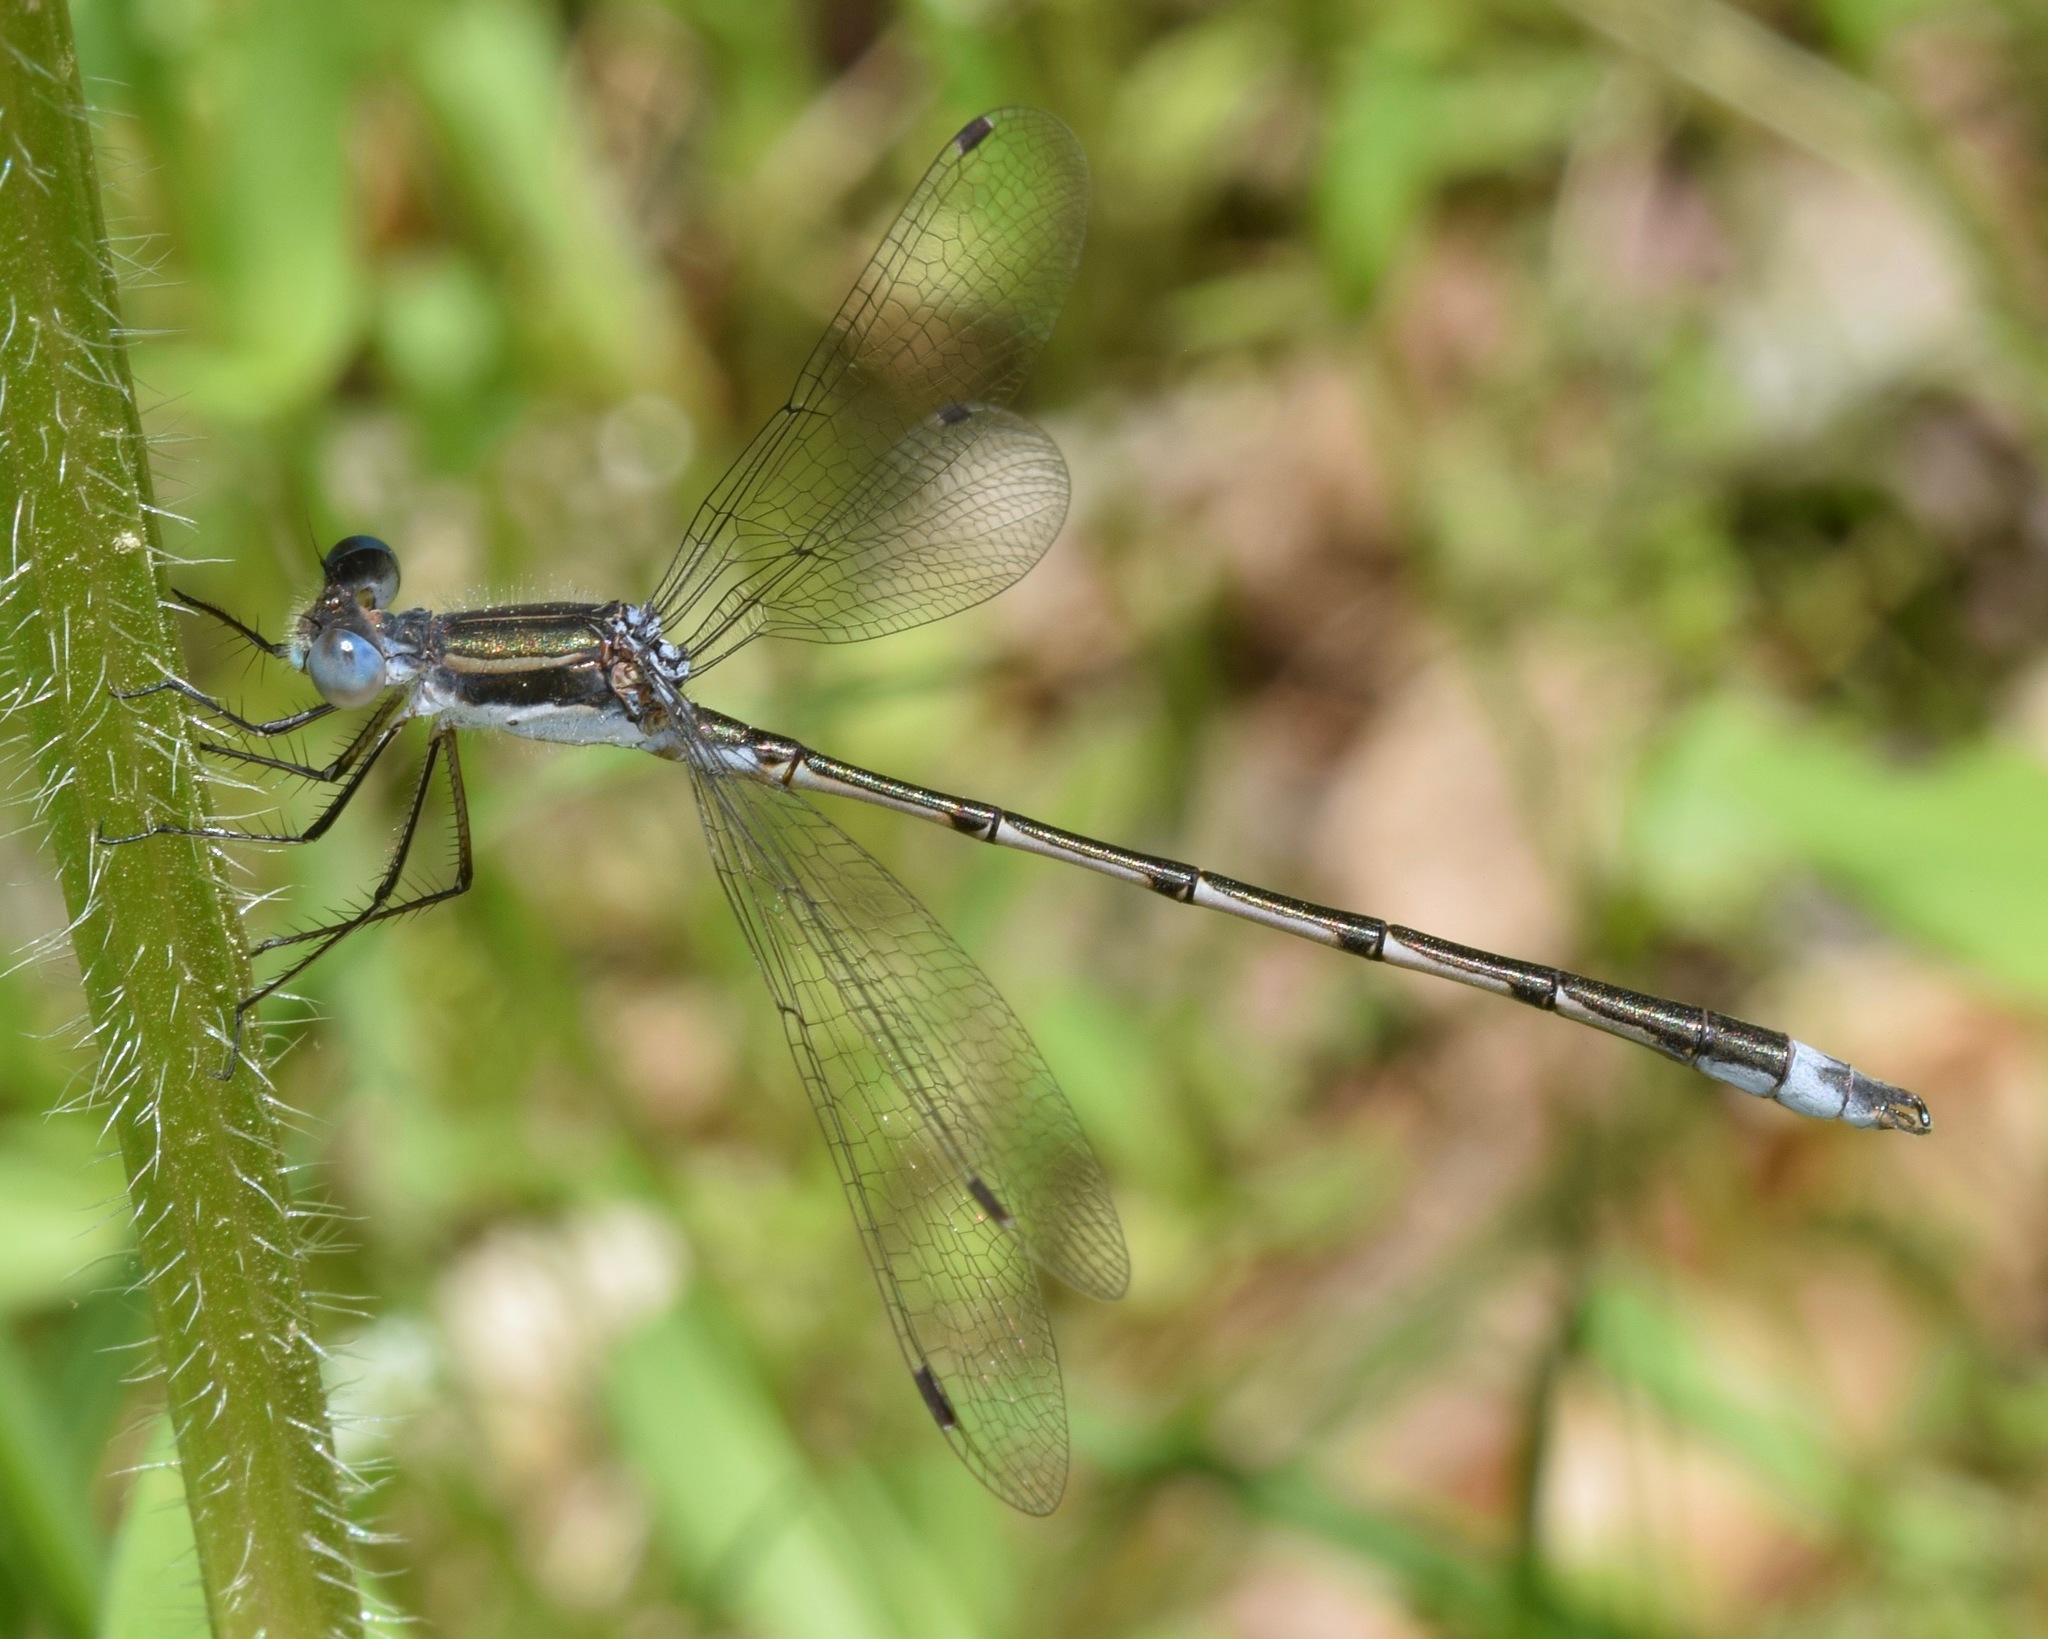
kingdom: Animalia
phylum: Arthropoda
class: Insecta
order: Odonata
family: Lestidae
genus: Lestes
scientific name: Lestes australis
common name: Southern spreadwing
